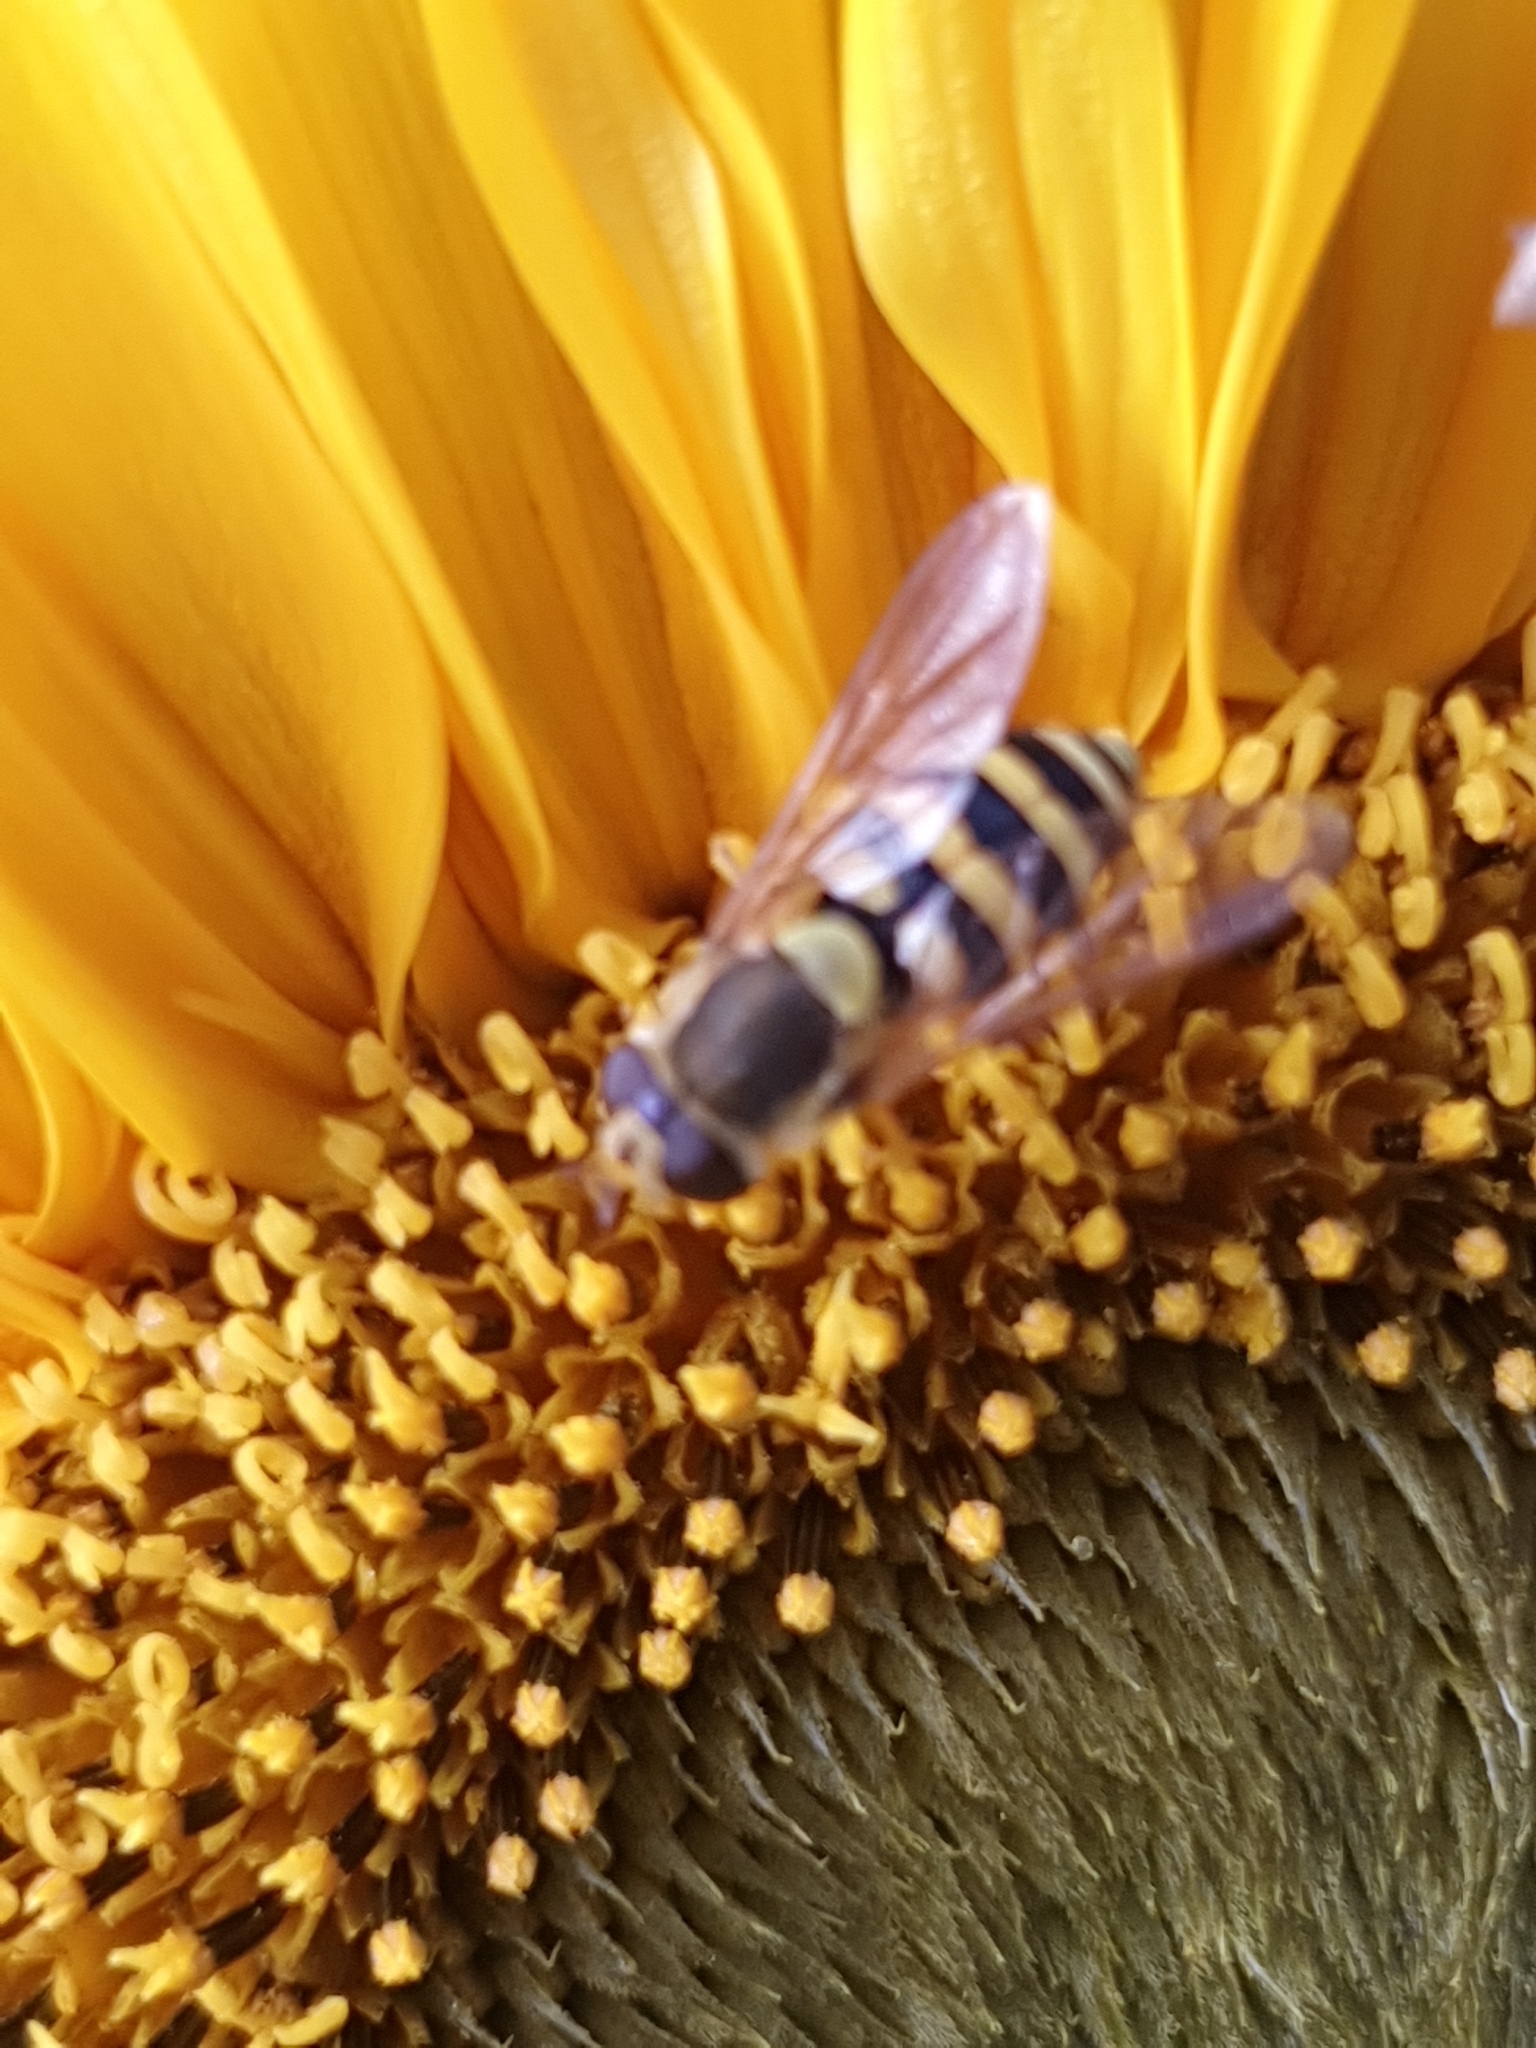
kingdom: Animalia
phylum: Arthropoda
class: Insecta
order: Diptera
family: Syrphidae
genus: Syrphus
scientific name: Syrphus
